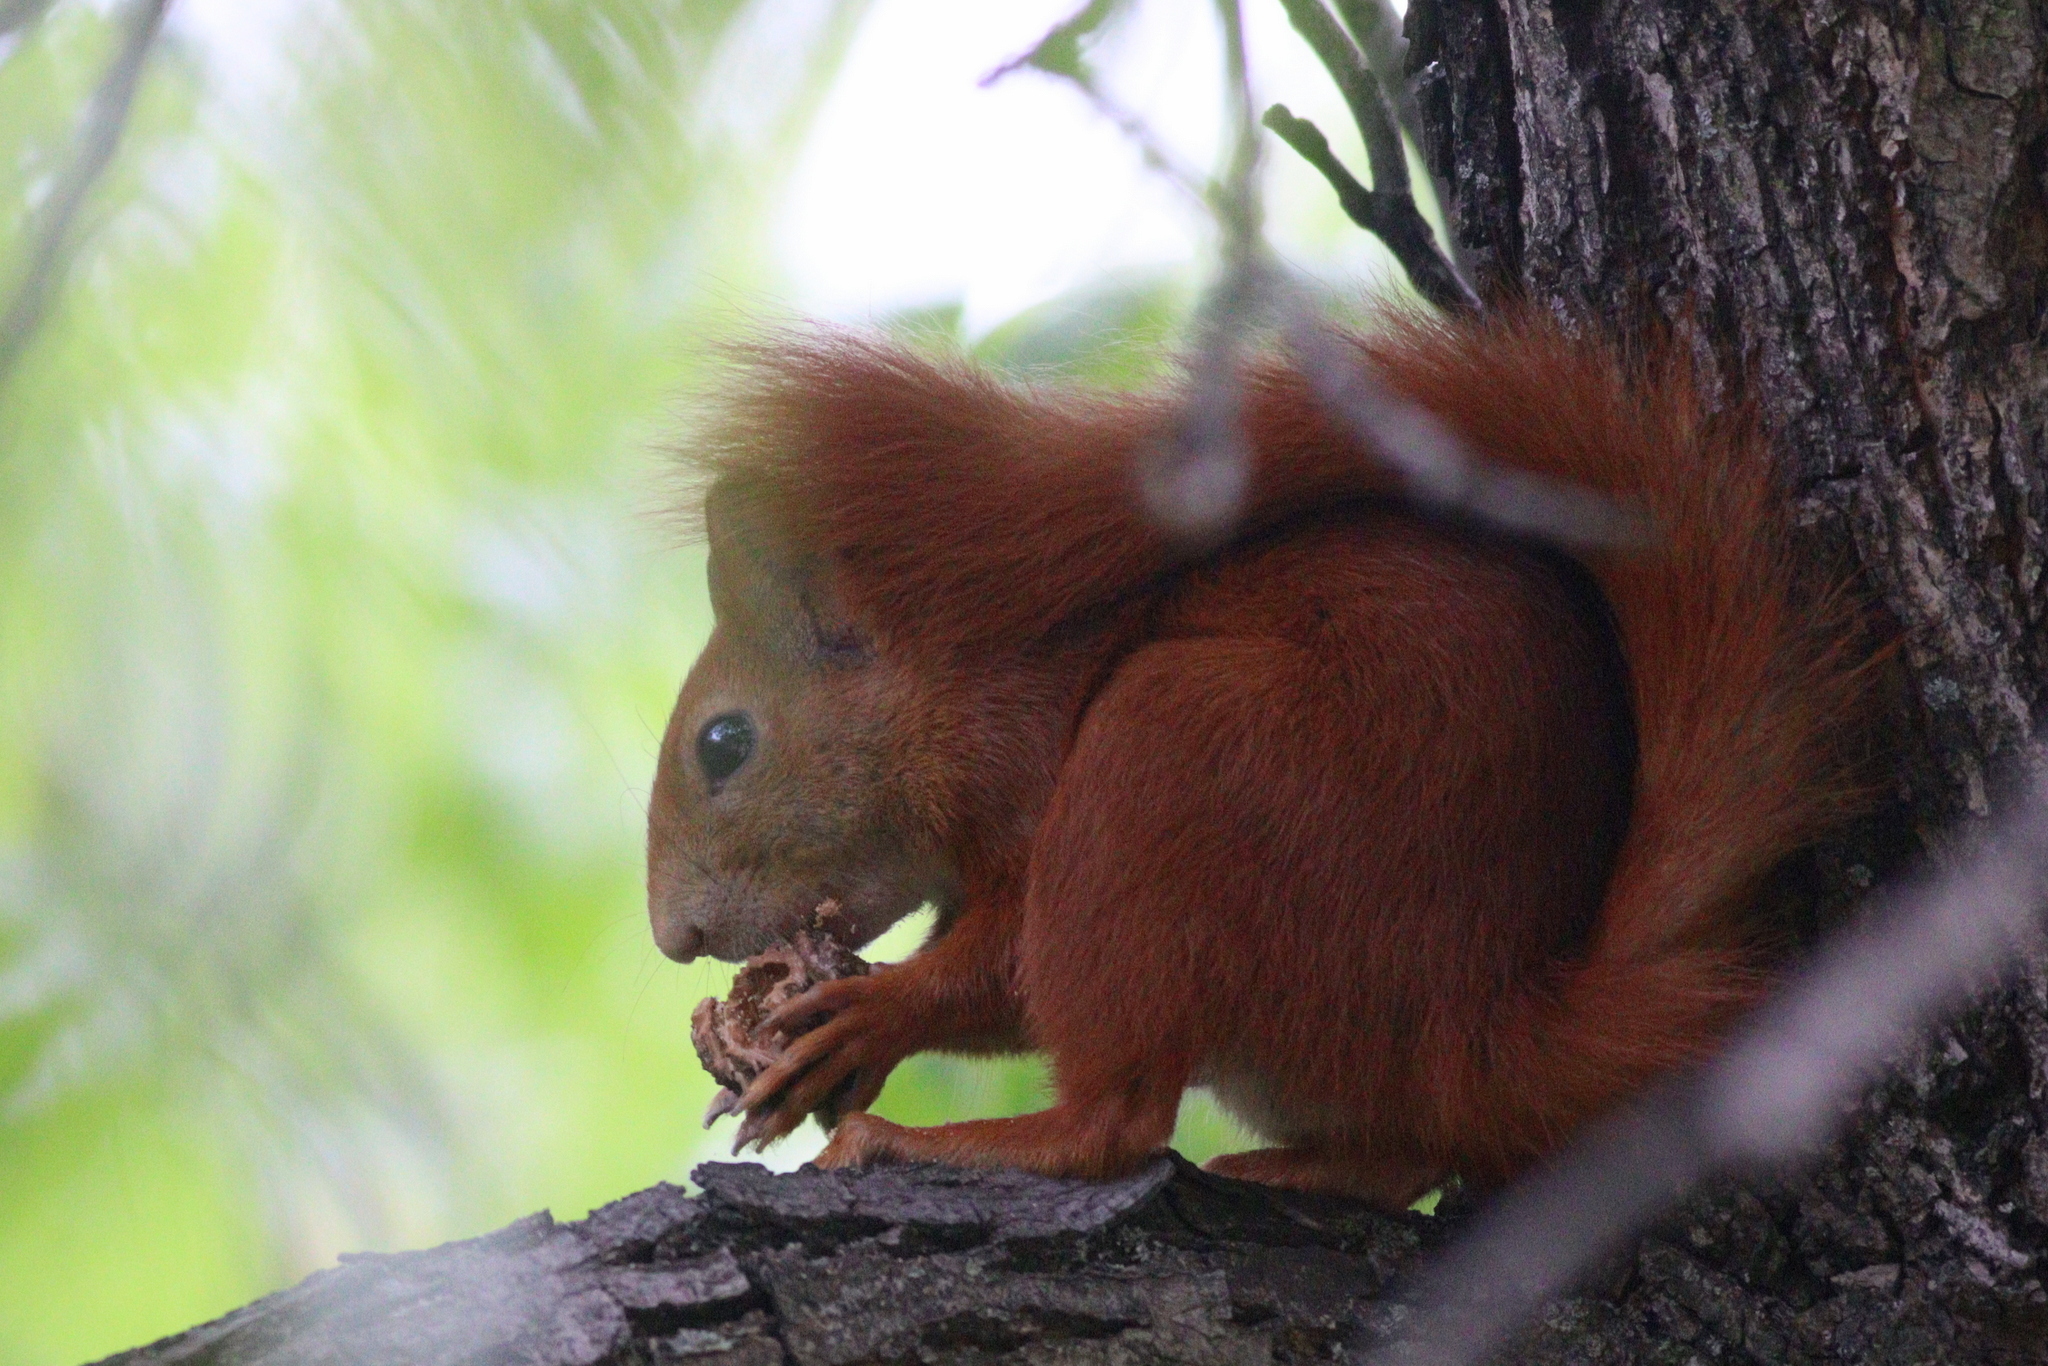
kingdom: Animalia
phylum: Chordata
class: Mammalia
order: Rodentia
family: Sciuridae
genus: Sciurus
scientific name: Sciurus vulgaris
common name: Eurasian red squirrel
